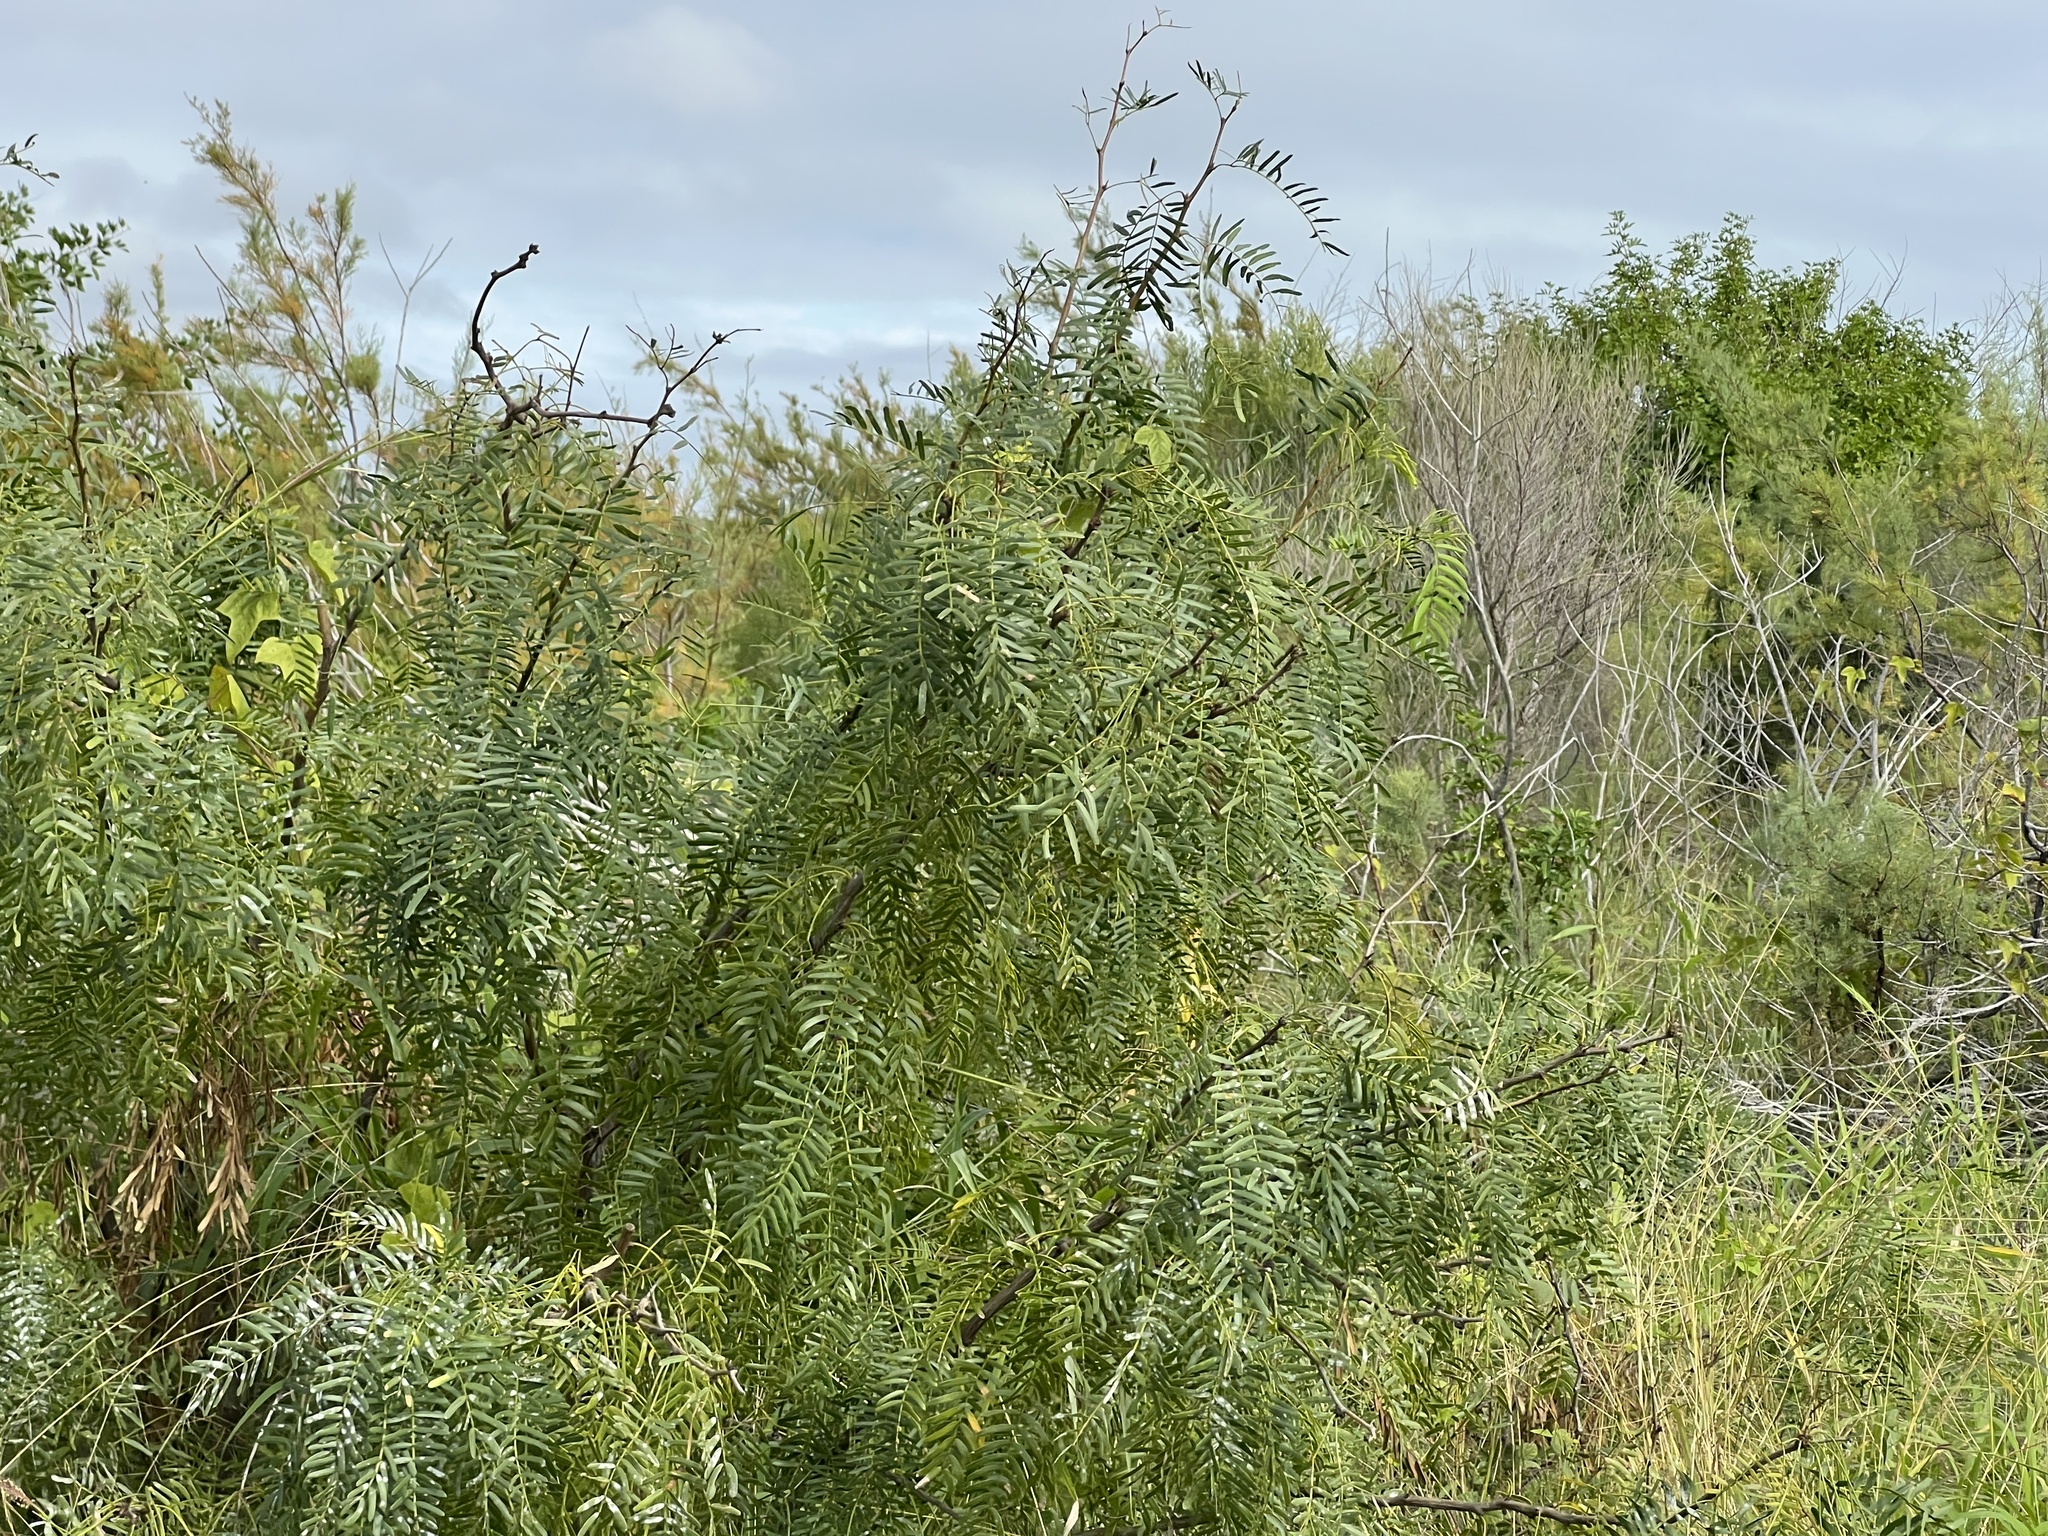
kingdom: Plantae
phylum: Tracheophyta
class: Magnoliopsida
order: Fabales
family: Fabaceae
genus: Prosopis
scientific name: Prosopis glandulosa
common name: Honey mesquite
